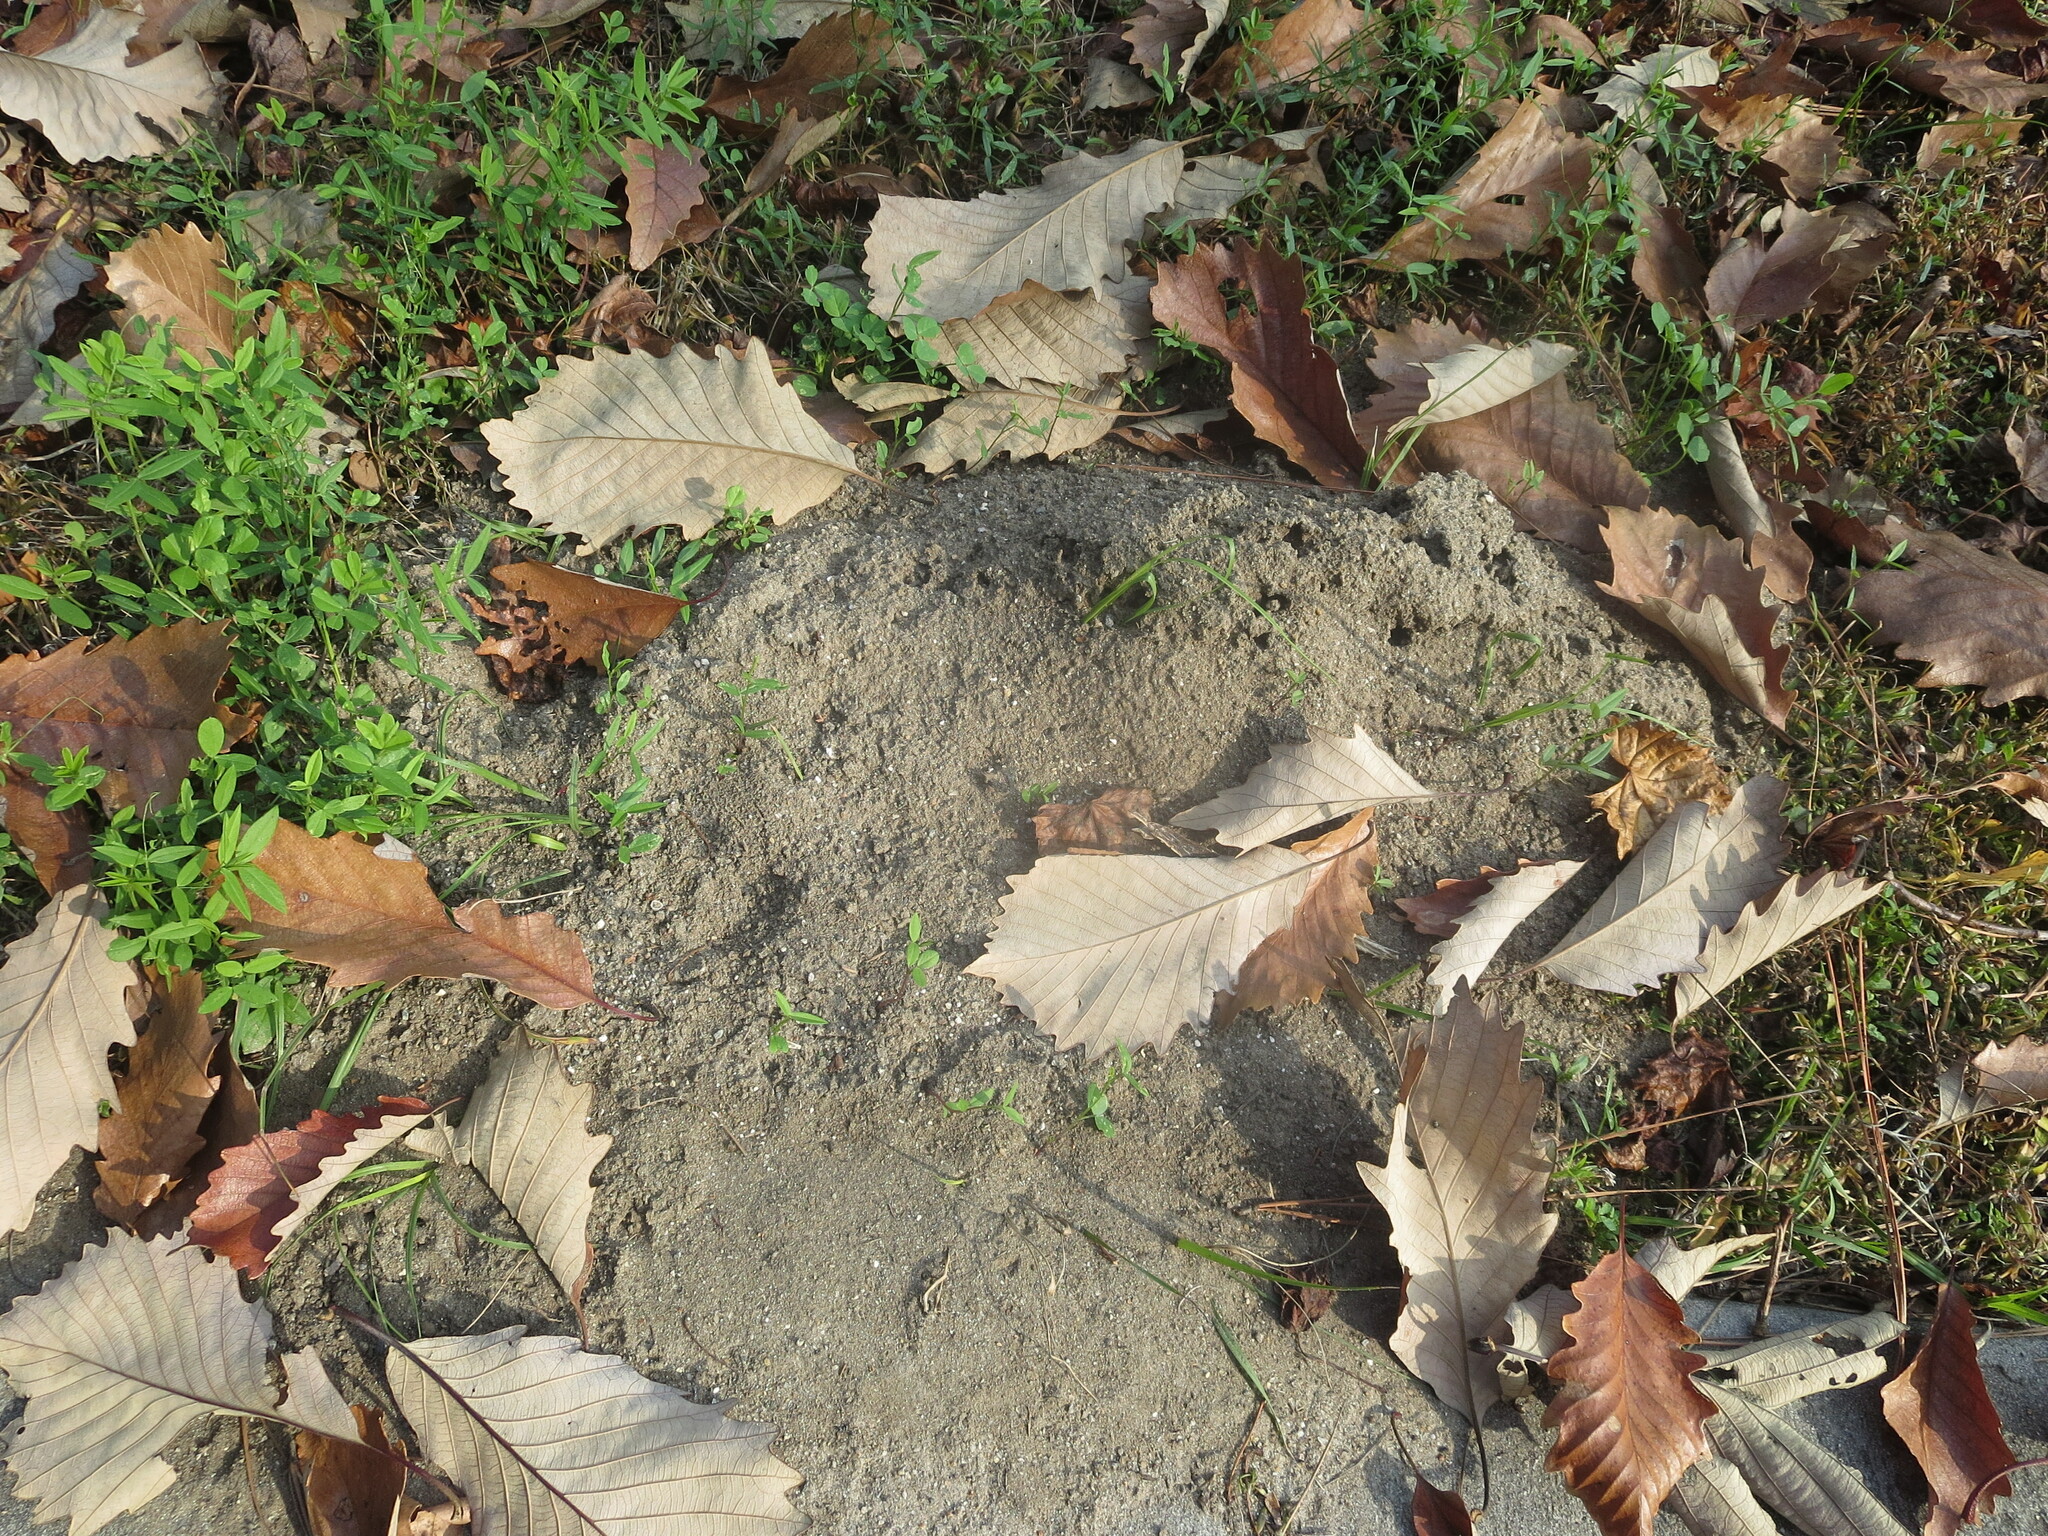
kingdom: Animalia
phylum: Arthropoda
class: Insecta
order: Hymenoptera
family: Formicidae
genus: Solenopsis
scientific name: Solenopsis invicta
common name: Red imported fire ant
